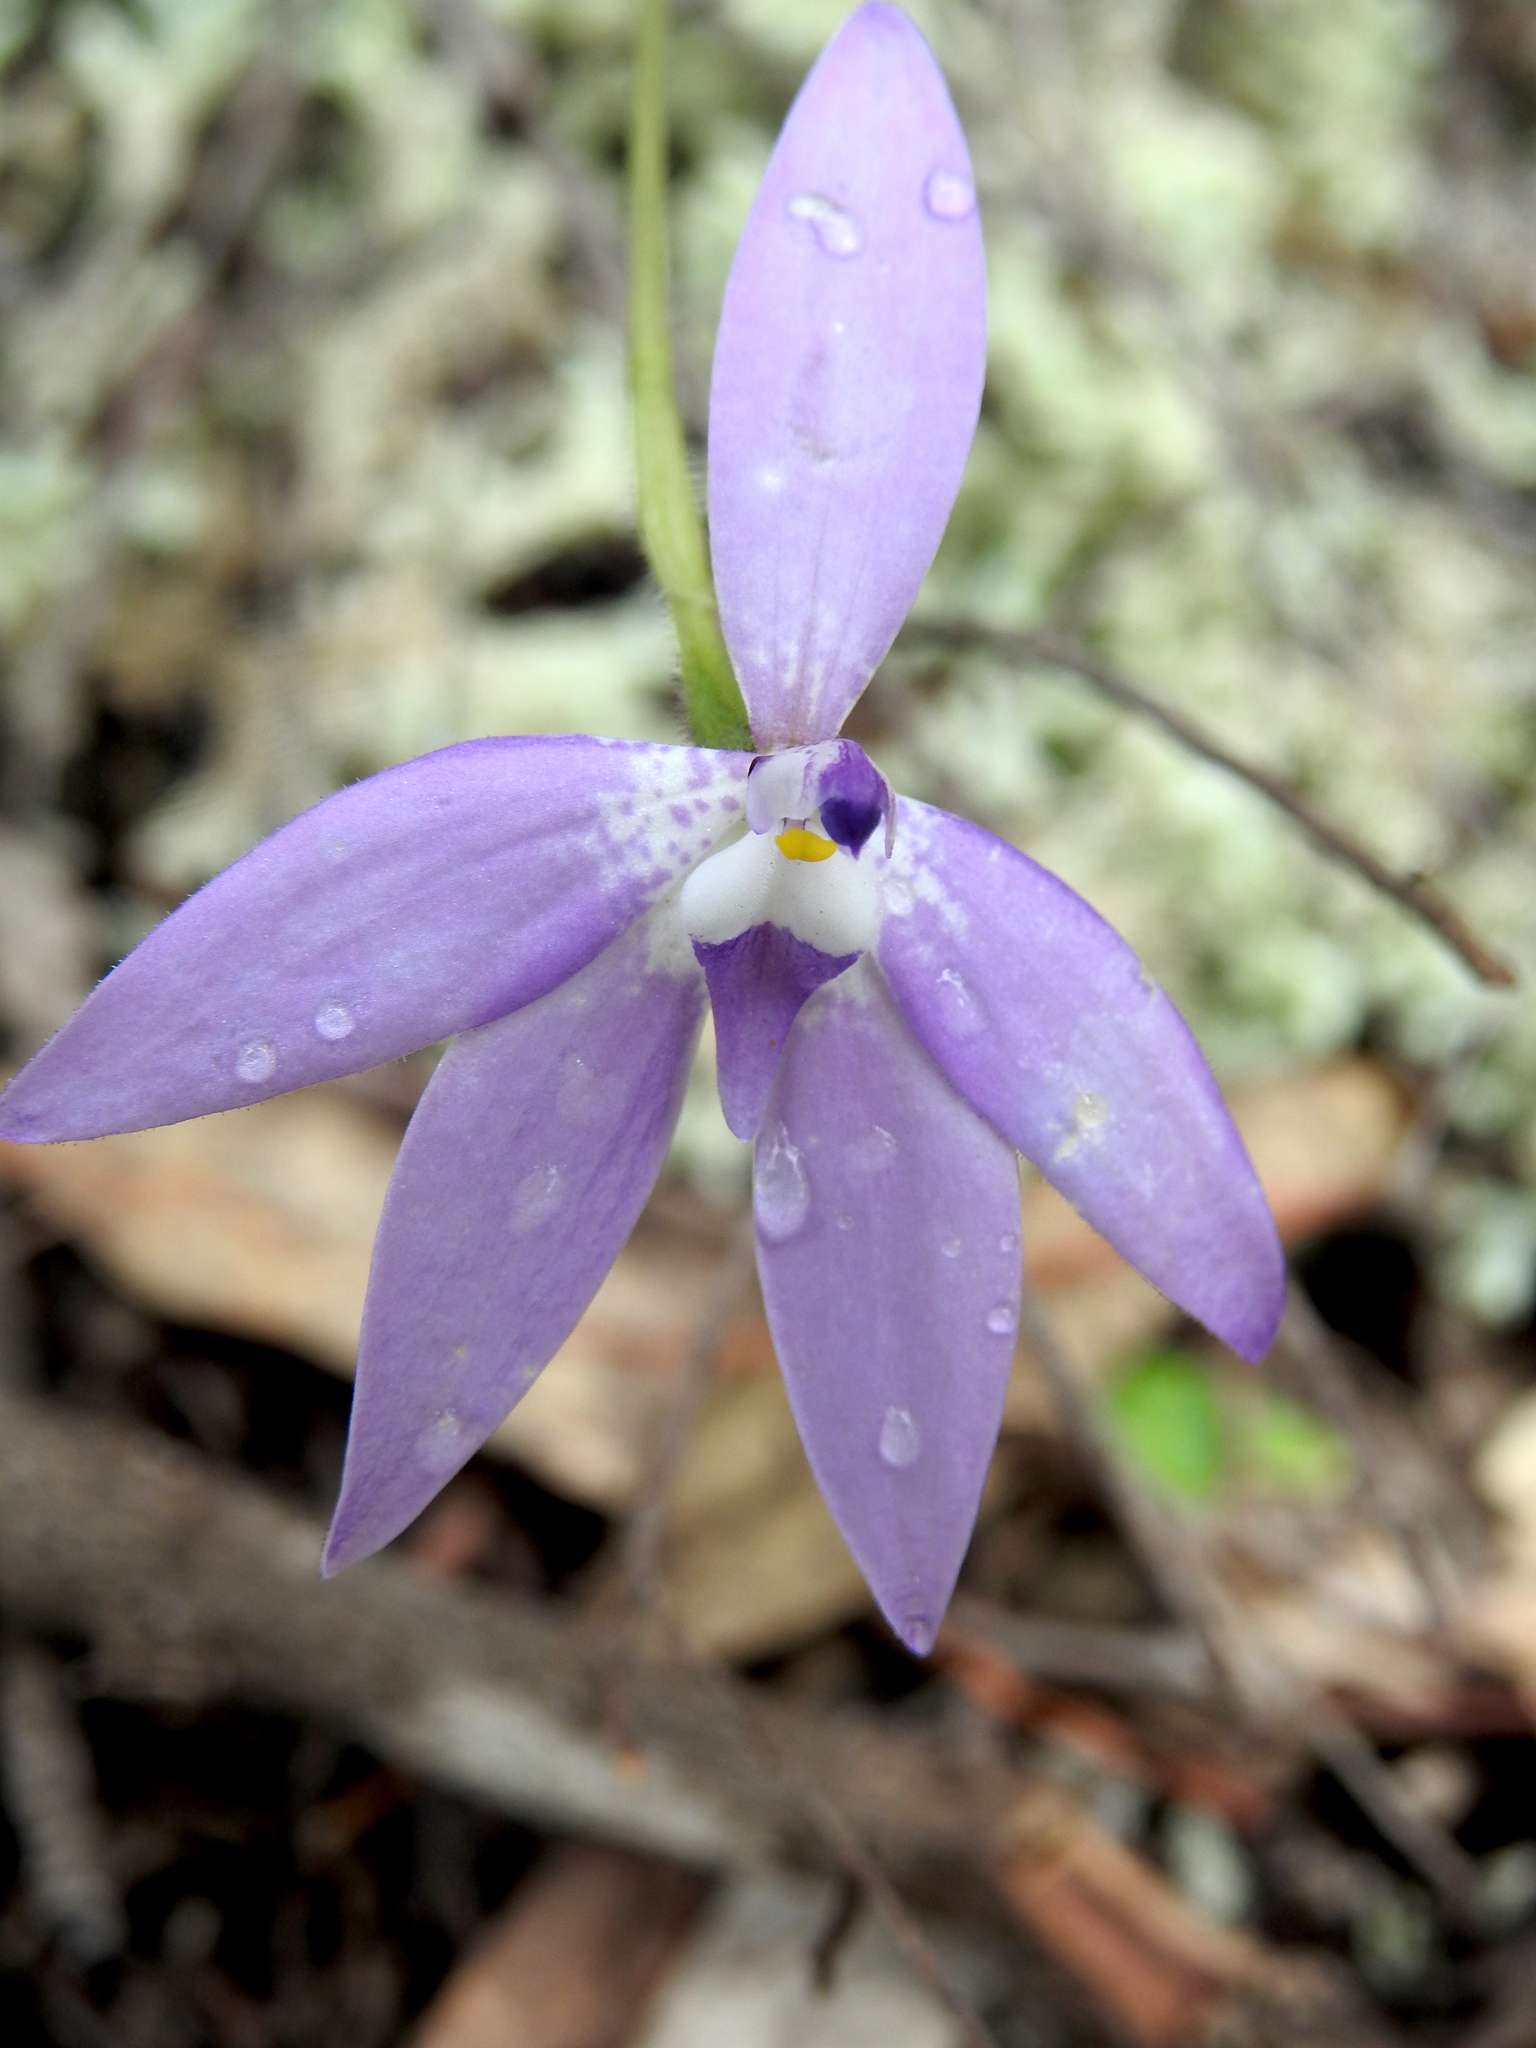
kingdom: Plantae
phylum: Tracheophyta
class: Liliopsida
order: Asparagales
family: Orchidaceae
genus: Caladenia
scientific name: Caladenia major
